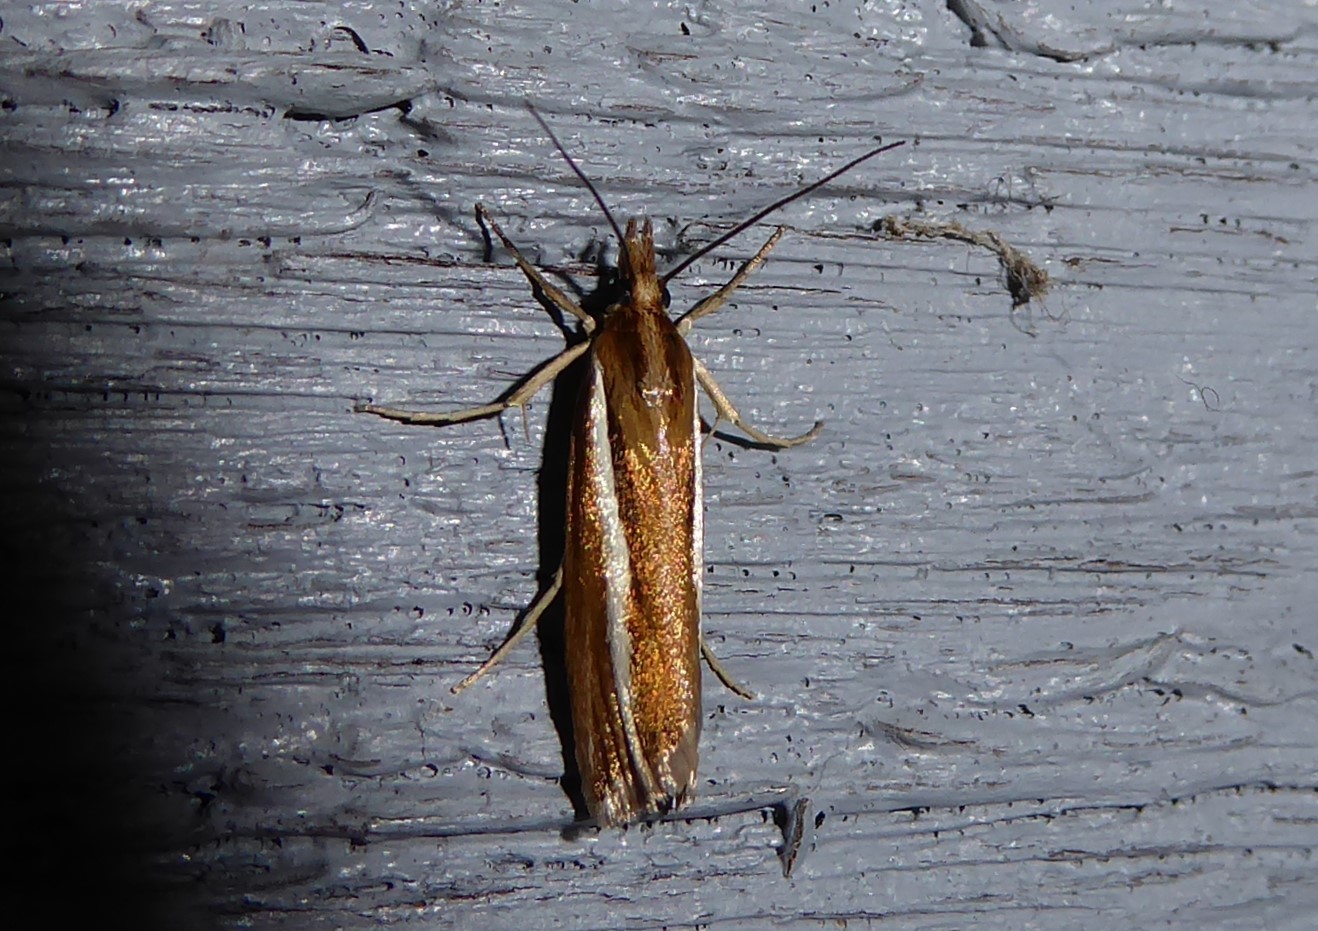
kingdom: Animalia
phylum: Arthropoda
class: Insecta
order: Lepidoptera
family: Crambidae
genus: Orocrambus
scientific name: Orocrambus aethonellus
